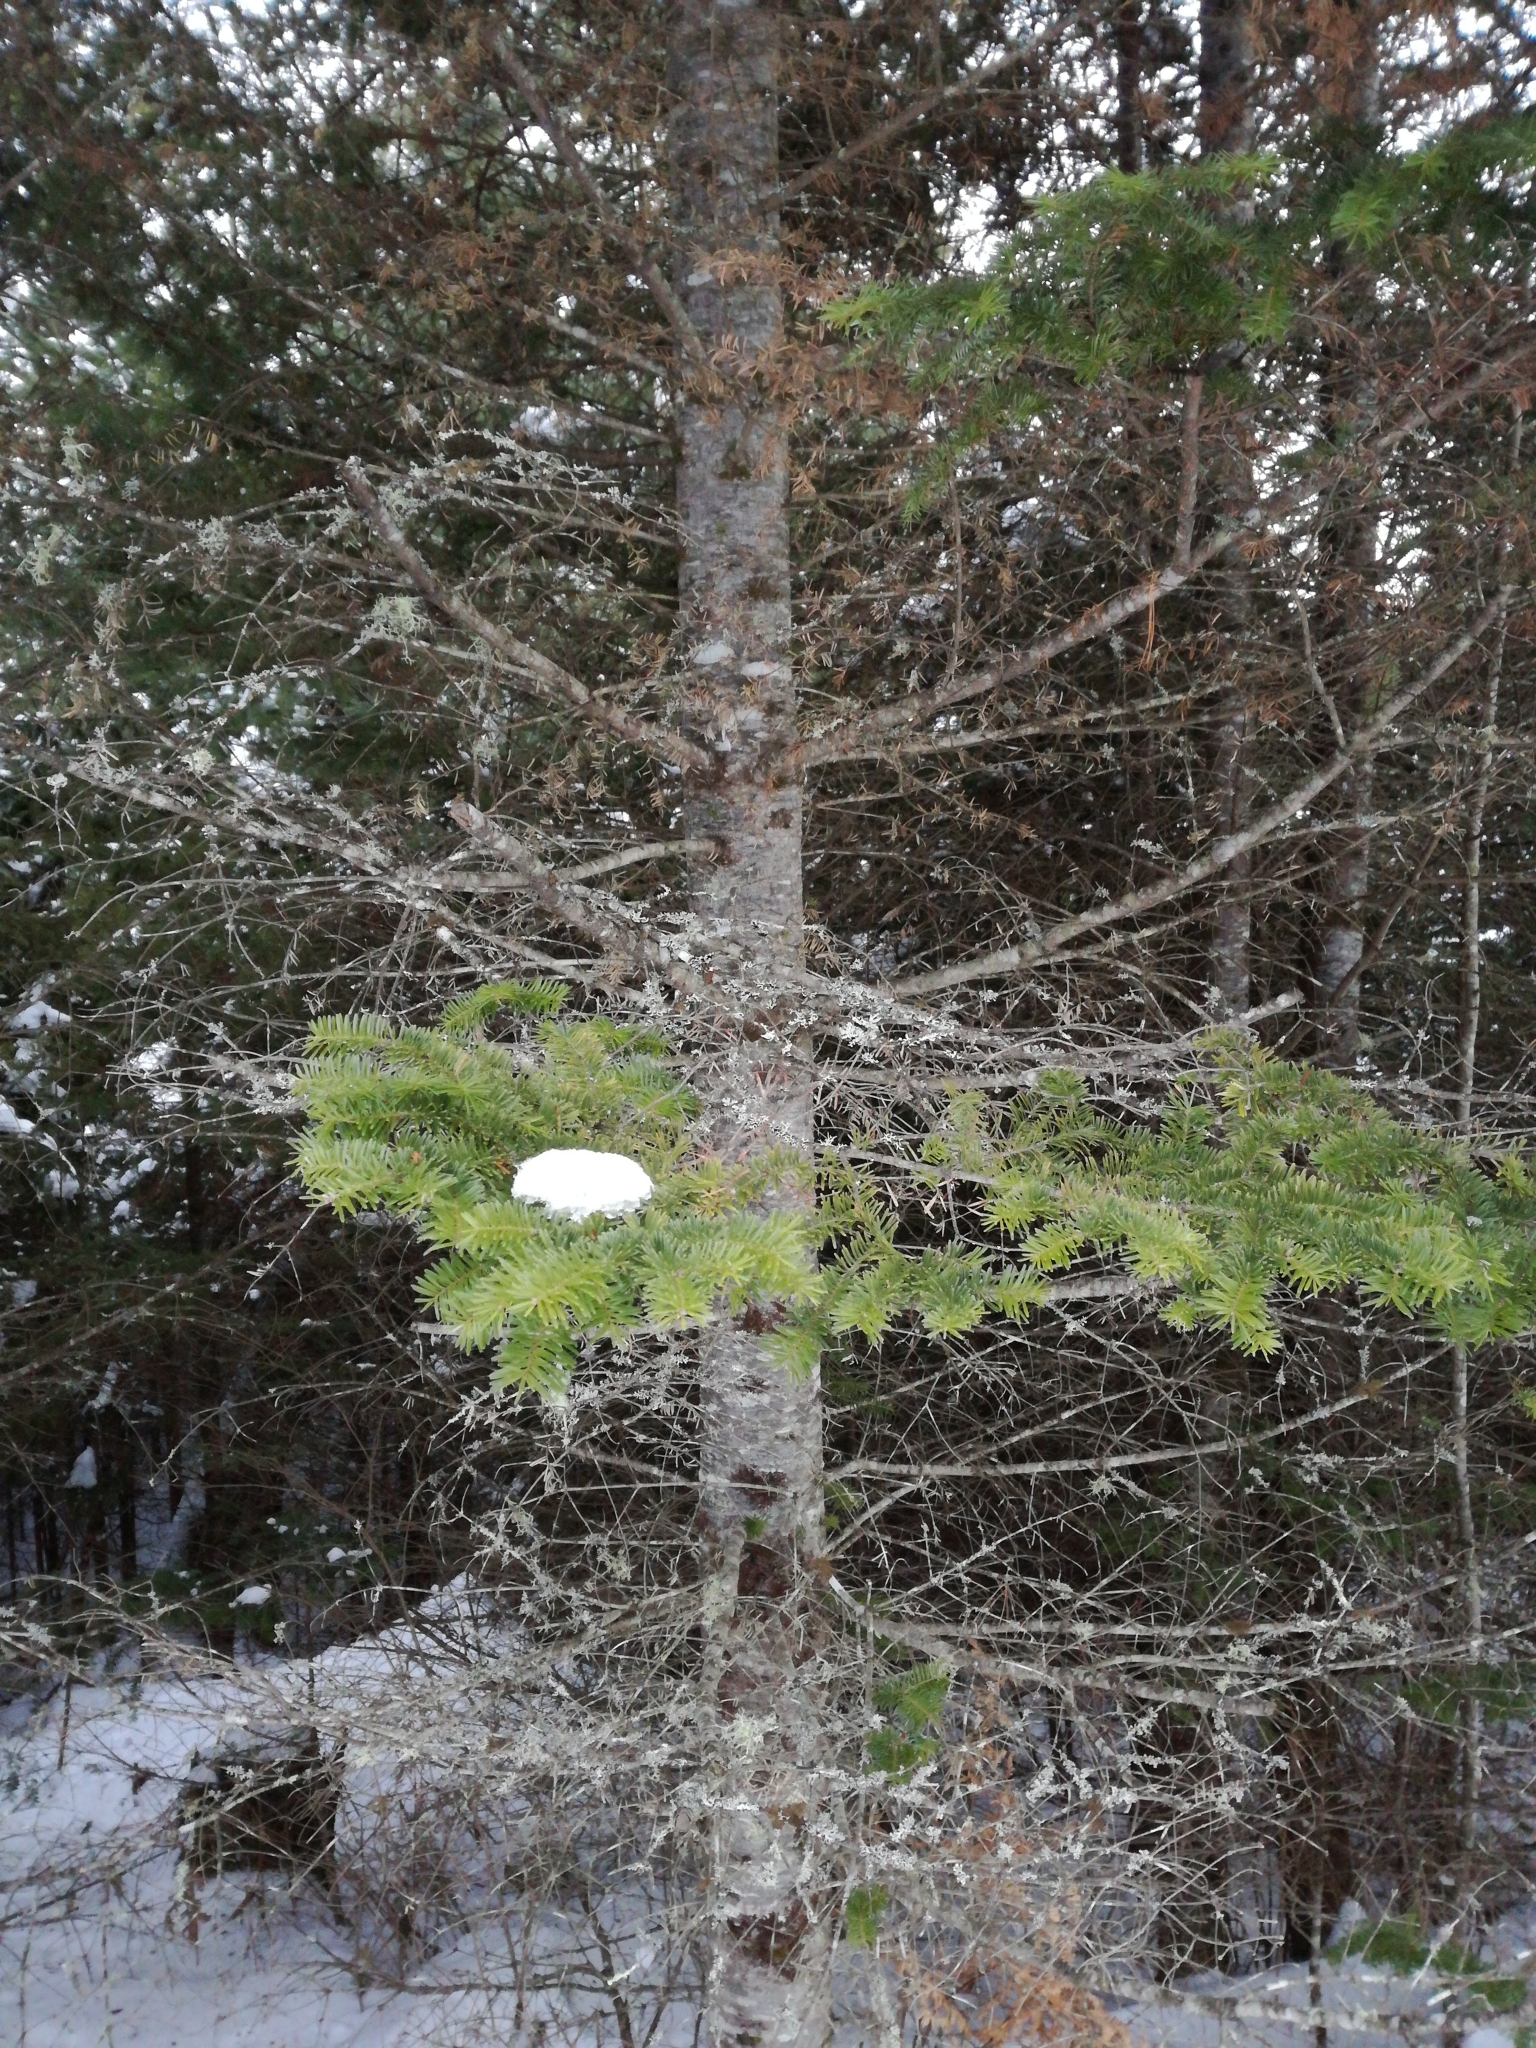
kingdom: Plantae
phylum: Tracheophyta
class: Pinopsida
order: Pinales
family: Pinaceae
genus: Abies
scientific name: Abies balsamea
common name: Balsam fir
